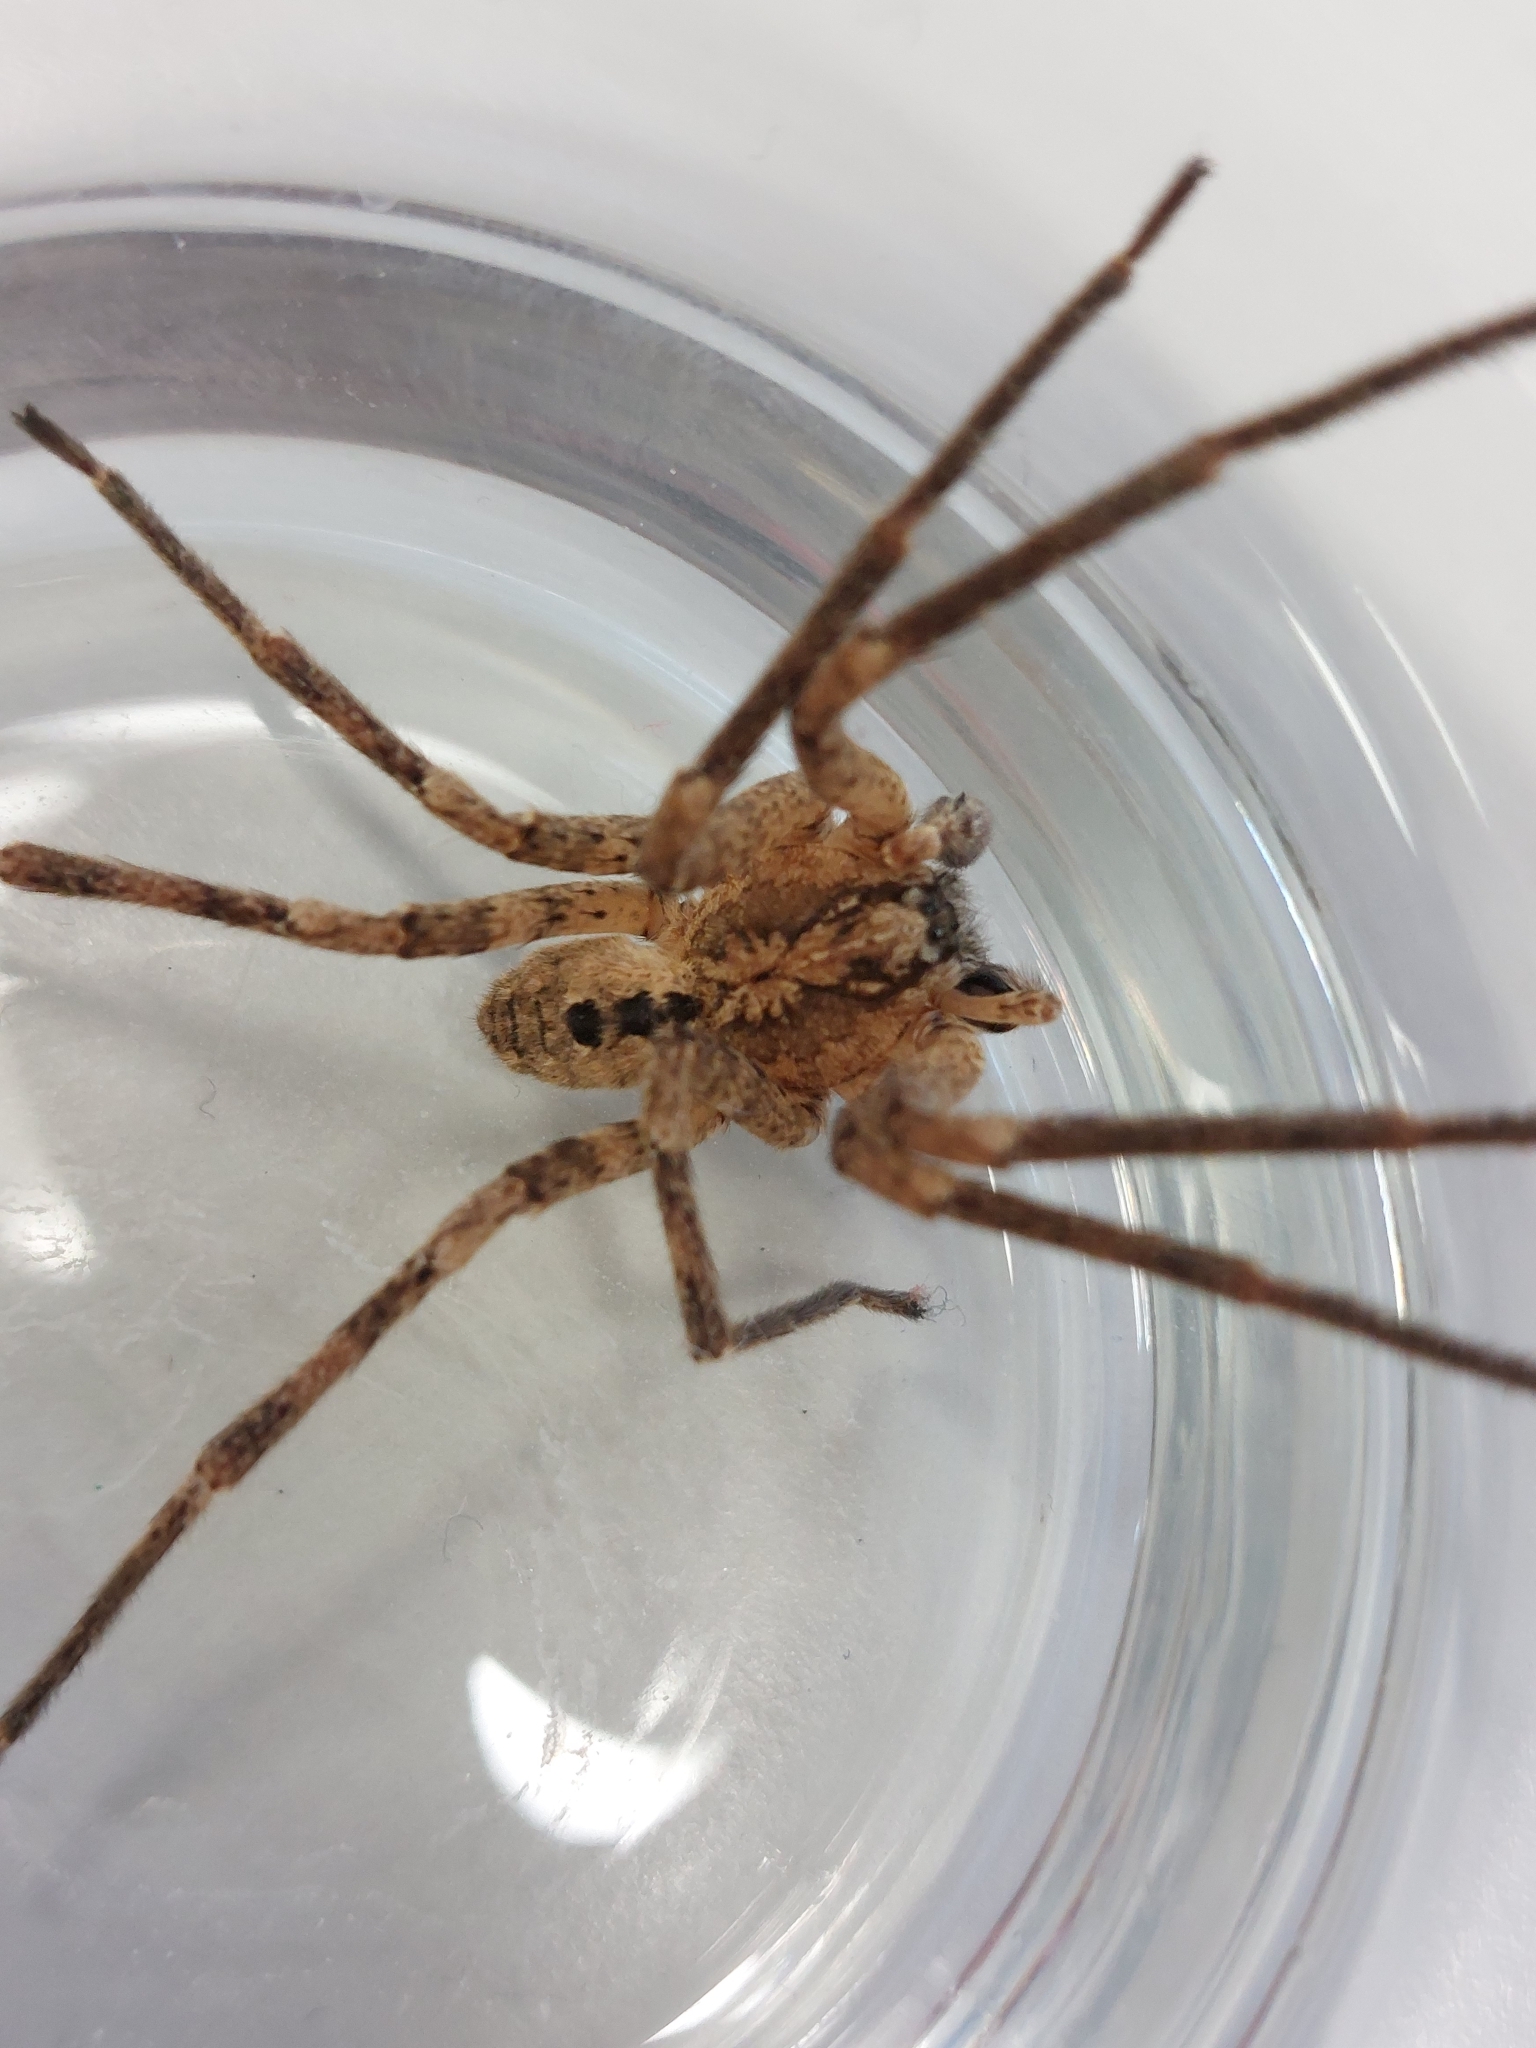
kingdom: Animalia
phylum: Arthropoda
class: Arachnida
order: Araneae
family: Zoropsidae
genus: Zoropsis
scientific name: Zoropsis spinimana
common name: Zoropsid spider
